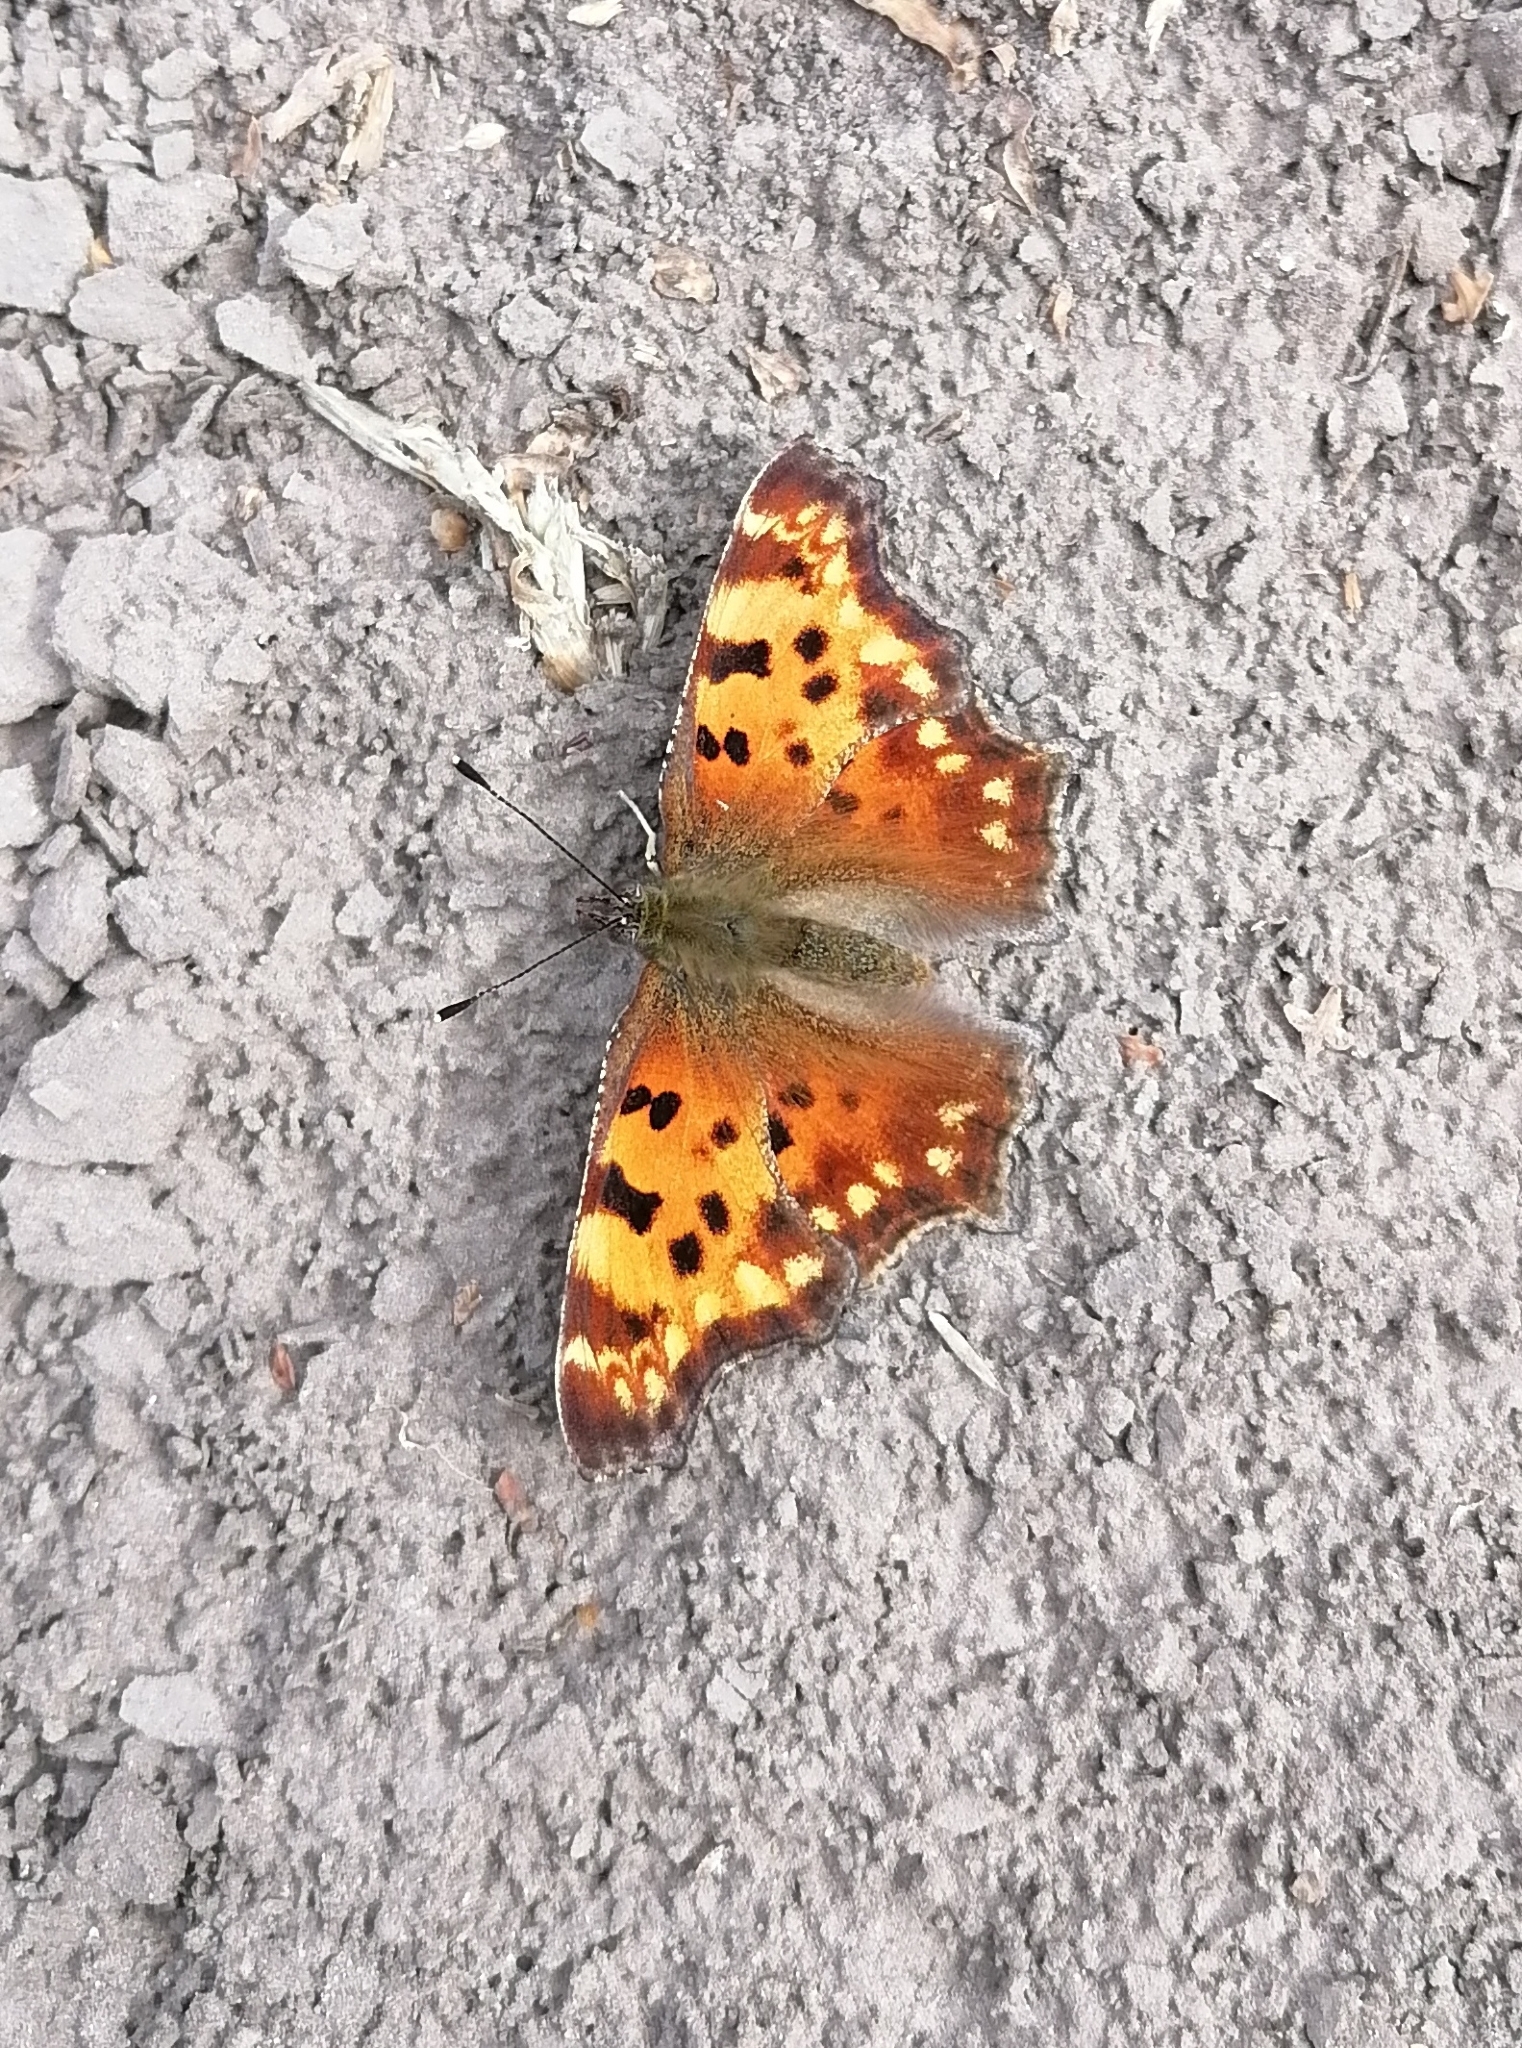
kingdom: Animalia
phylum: Arthropoda
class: Insecta
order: Lepidoptera
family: Nymphalidae
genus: Polygonia
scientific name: Polygonia c-album
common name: Comma
